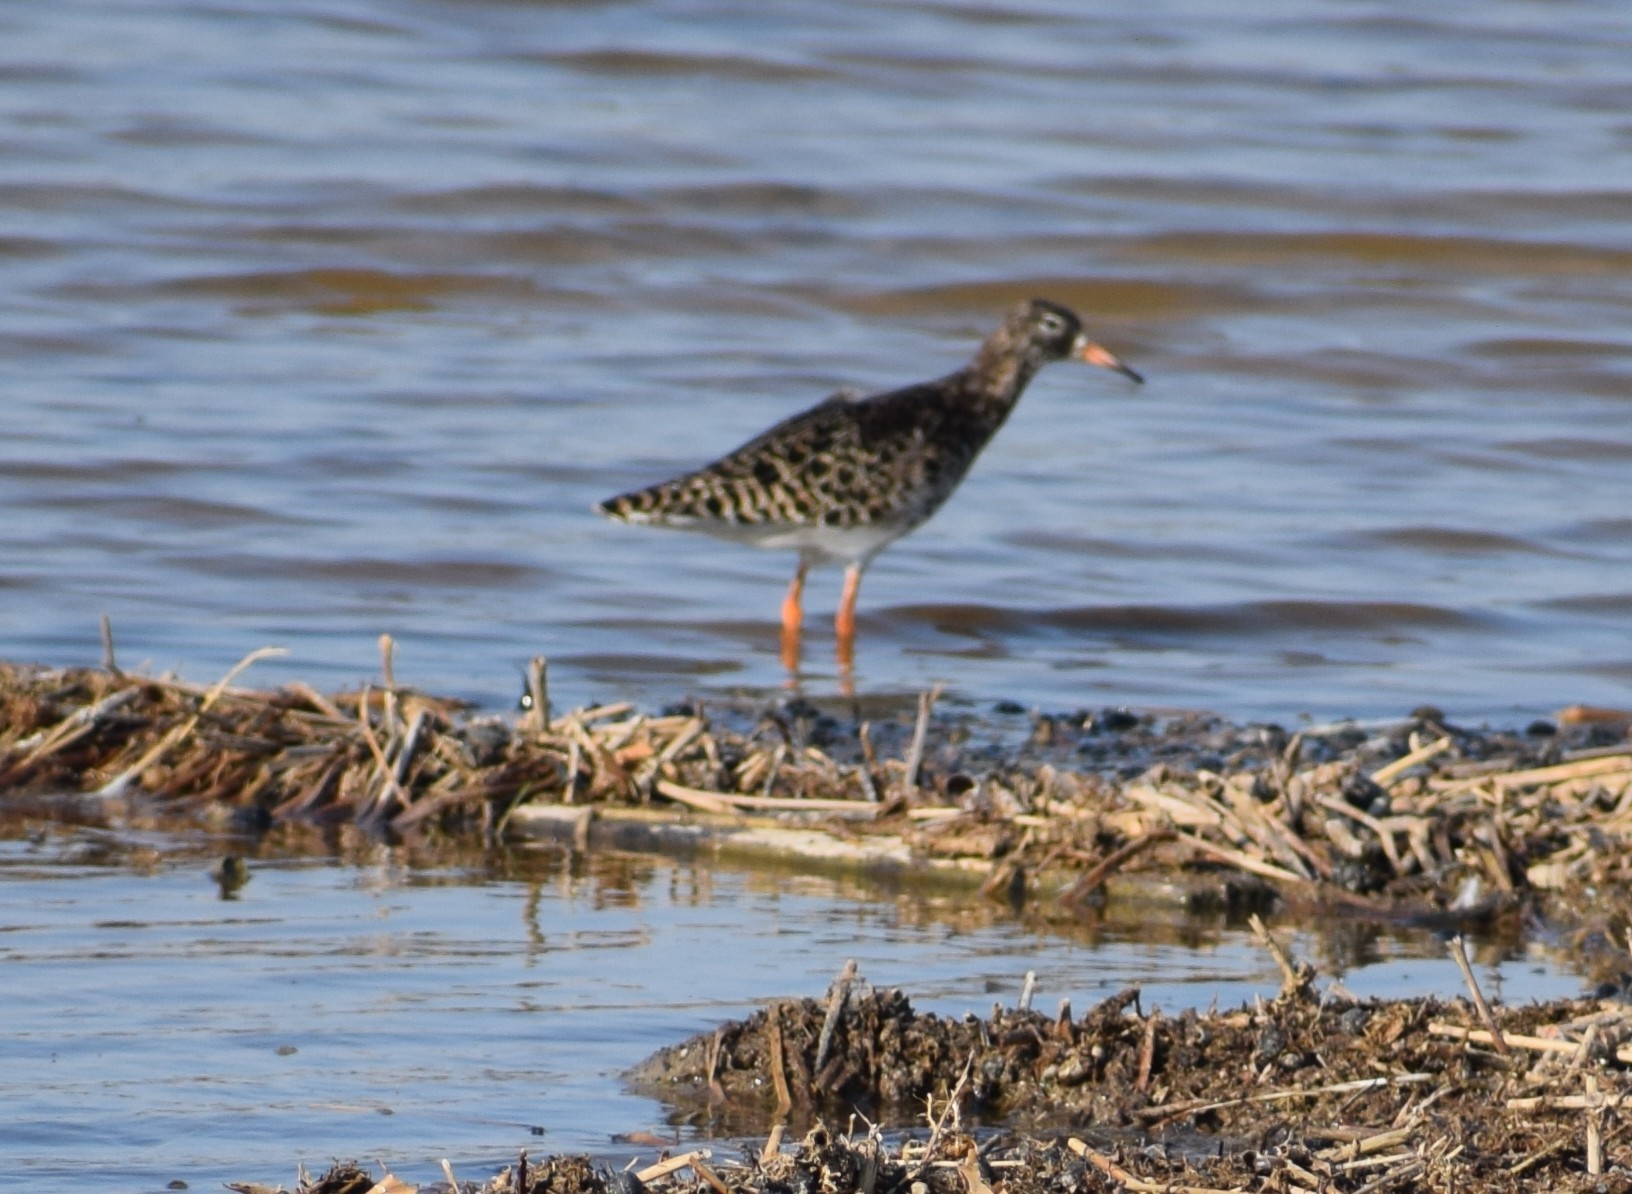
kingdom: Animalia
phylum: Chordata
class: Aves
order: Charadriiformes
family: Scolopacidae
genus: Calidris
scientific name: Calidris pugnax
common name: Ruff
